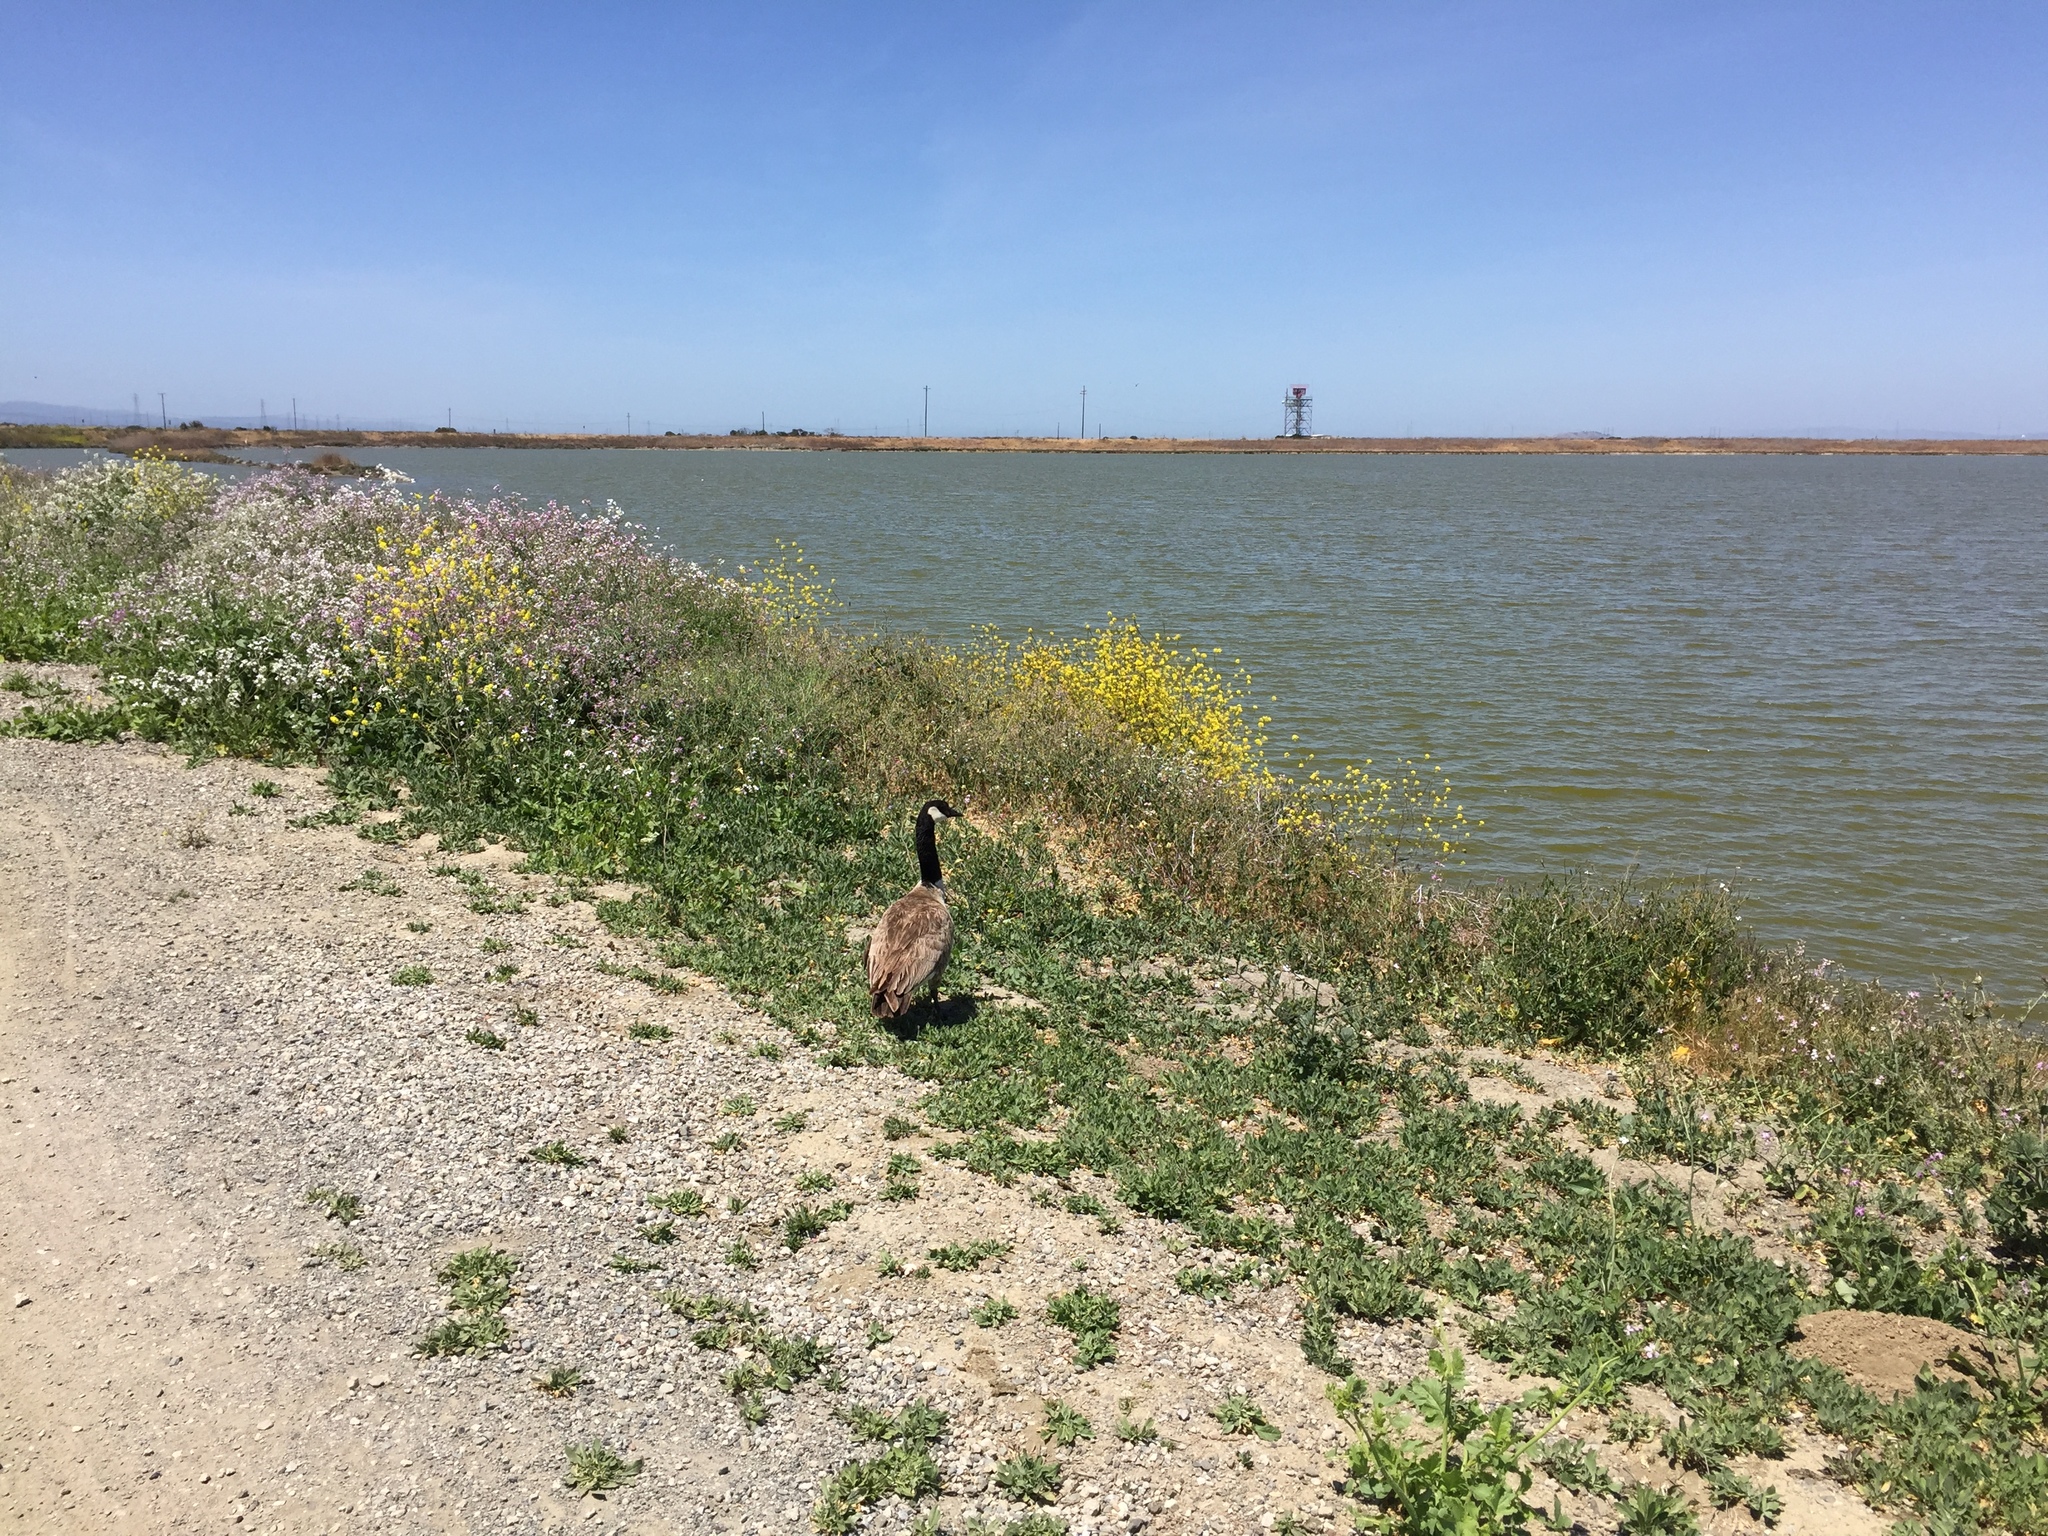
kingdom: Animalia
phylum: Chordata
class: Aves
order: Anseriformes
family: Anatidae
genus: Branta
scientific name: Branta canadensis
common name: Canada goose
